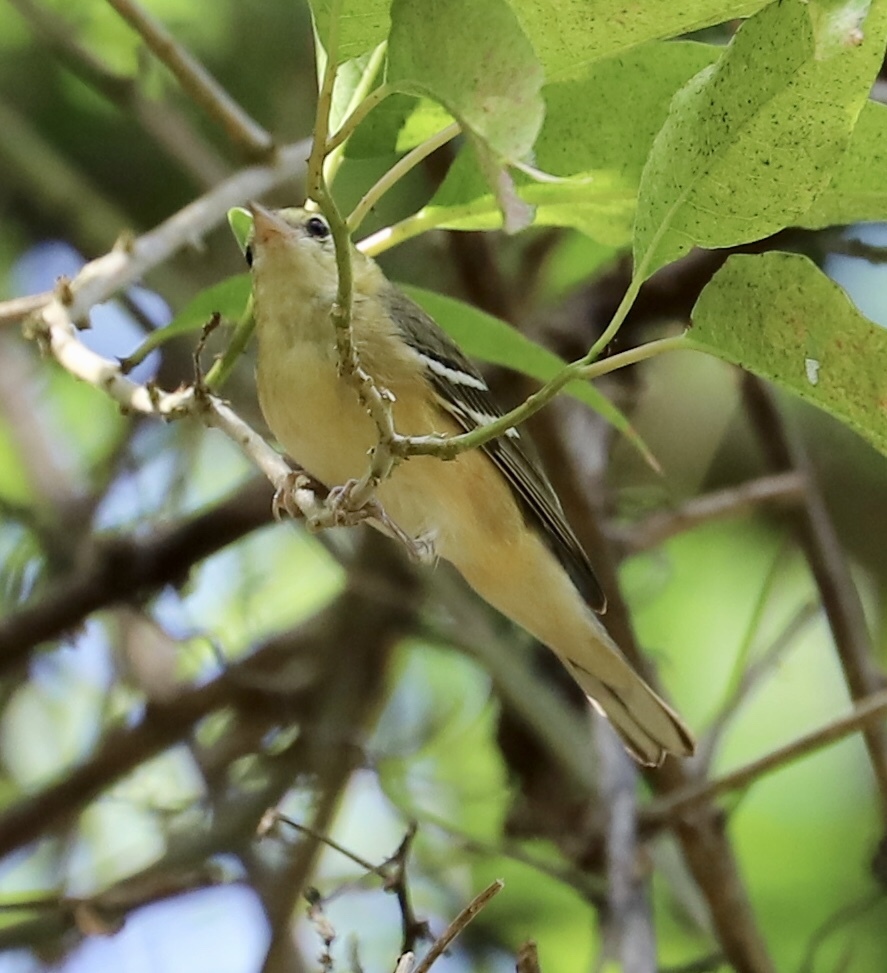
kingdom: Animalia
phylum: Chordata
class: Aves
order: Passeriformes
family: Parulidae
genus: Setophaga
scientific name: Setophaga castanea
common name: Bay-breasted warbler
